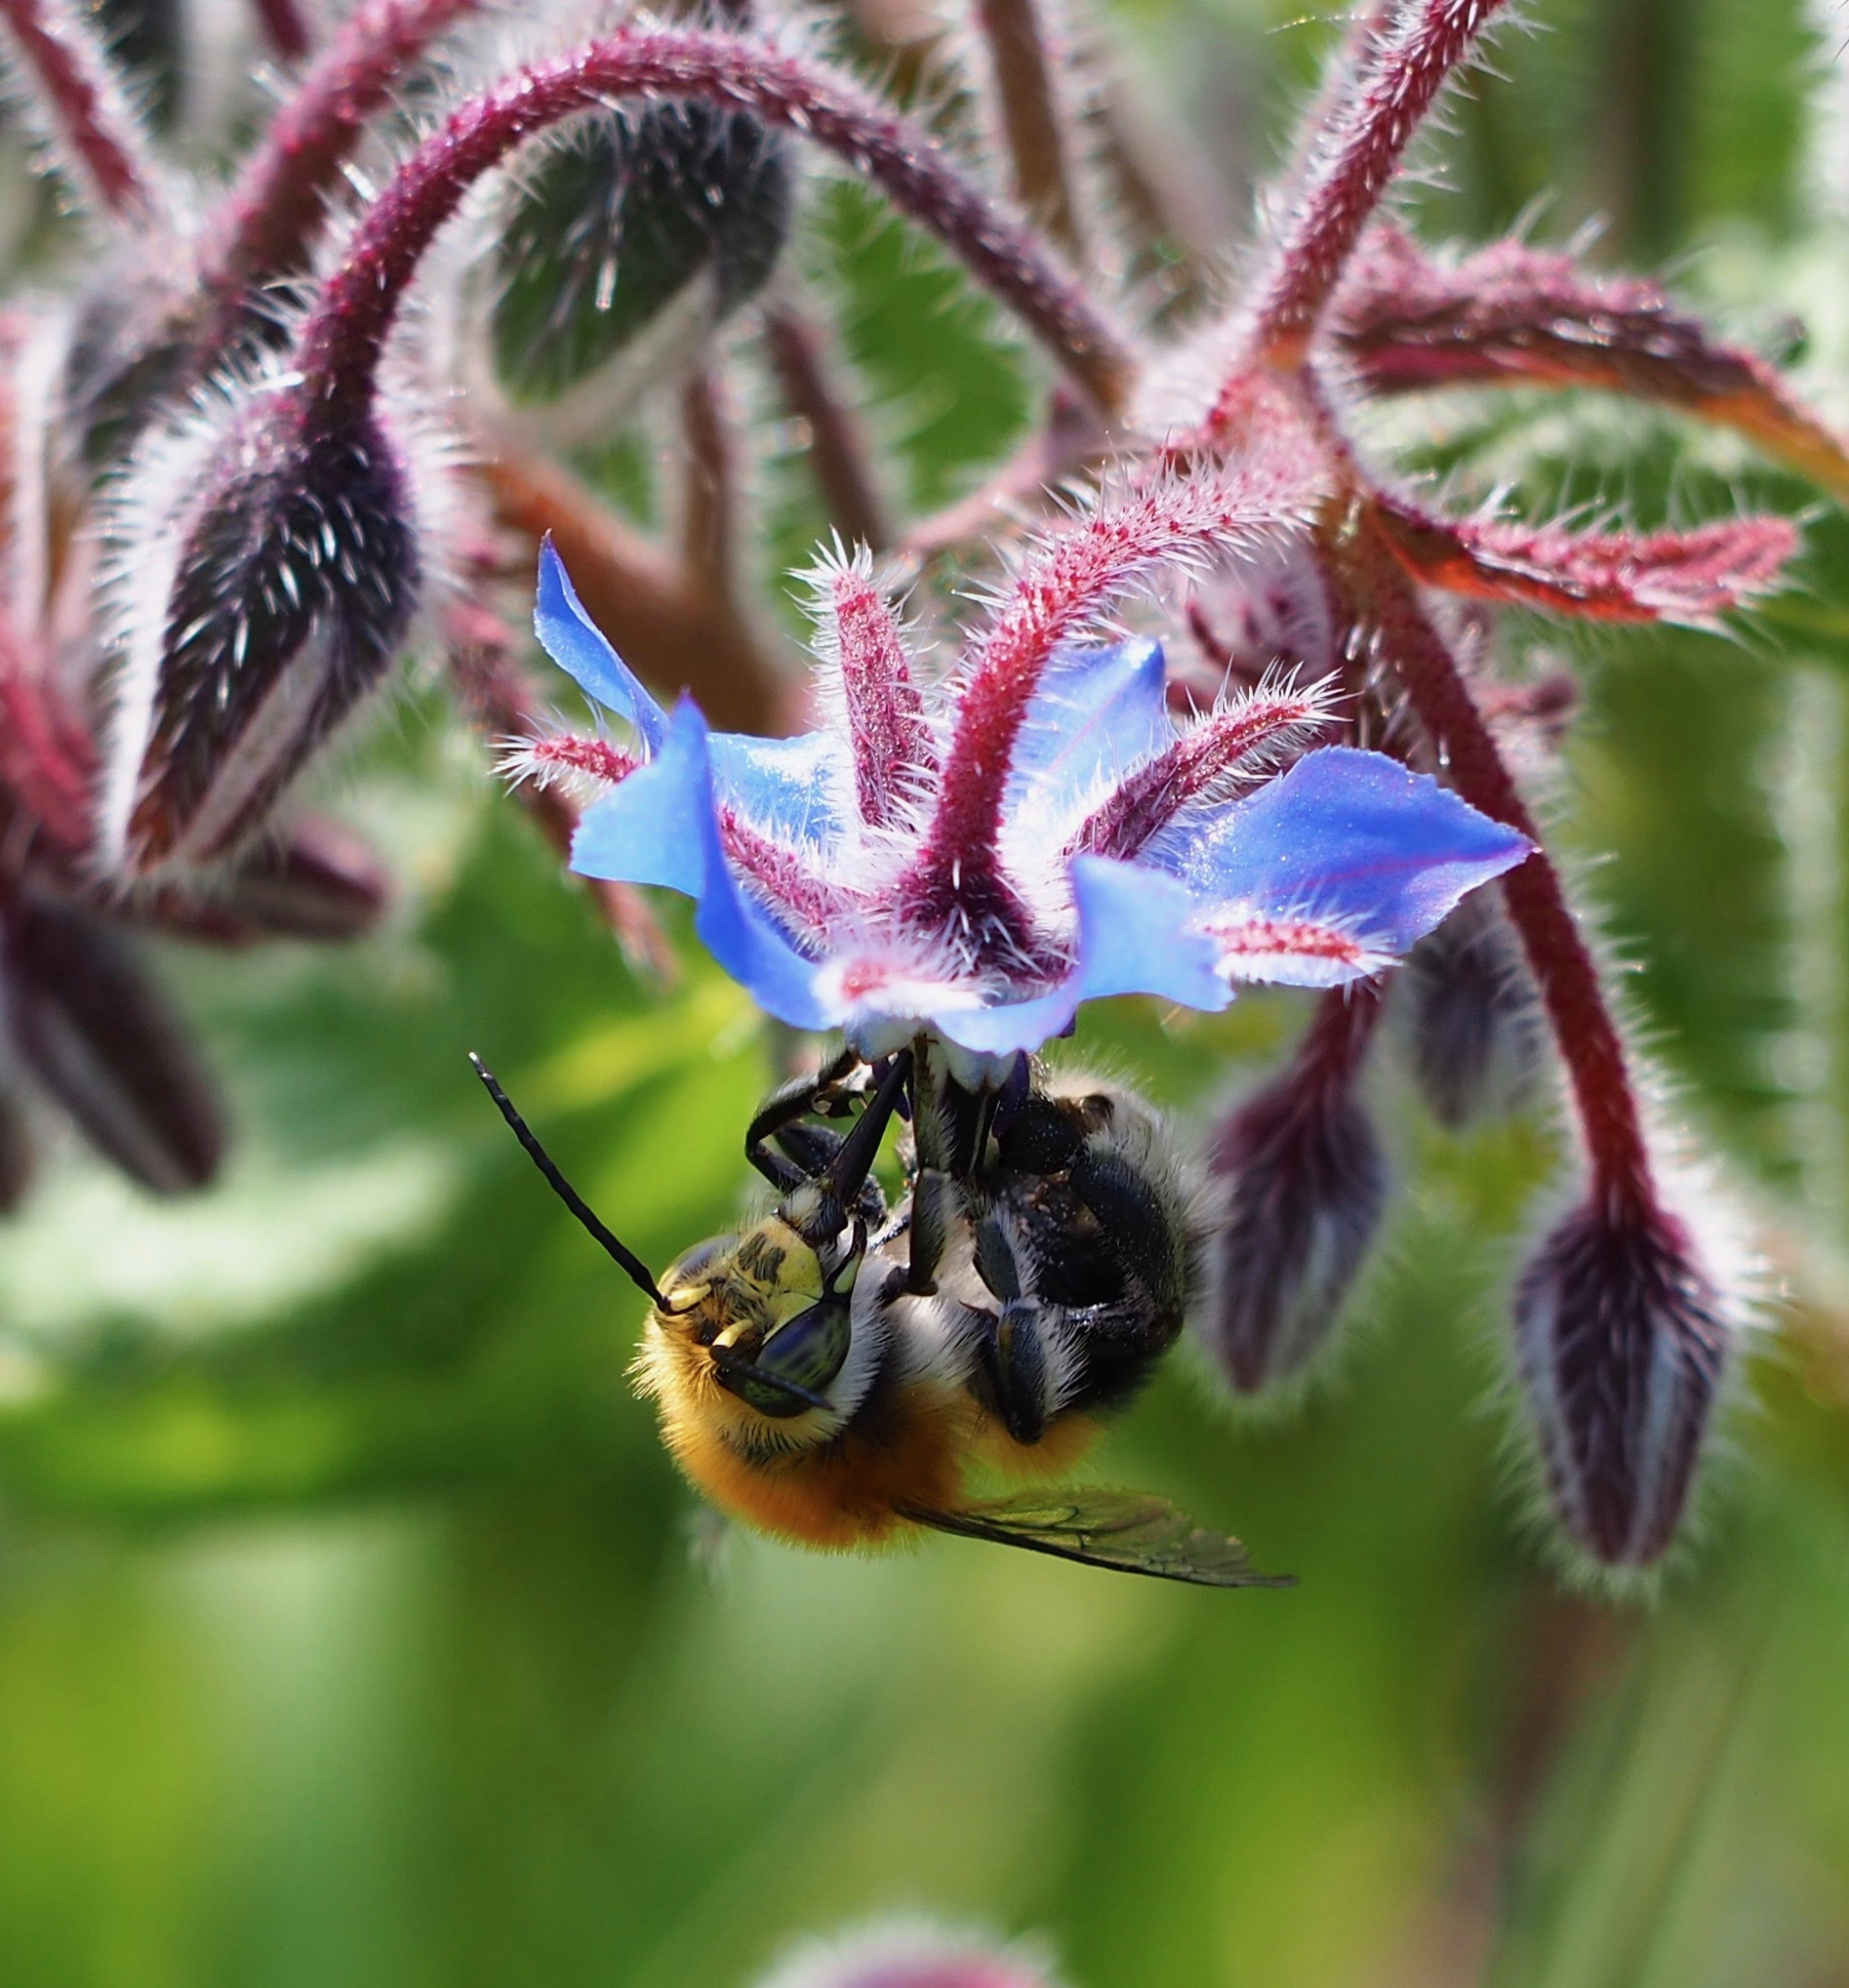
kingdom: Animalia
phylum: Arthropoda
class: Insecta
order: Hymenoptera
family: Apidae
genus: Habropoda
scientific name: Habropoda tarsata
